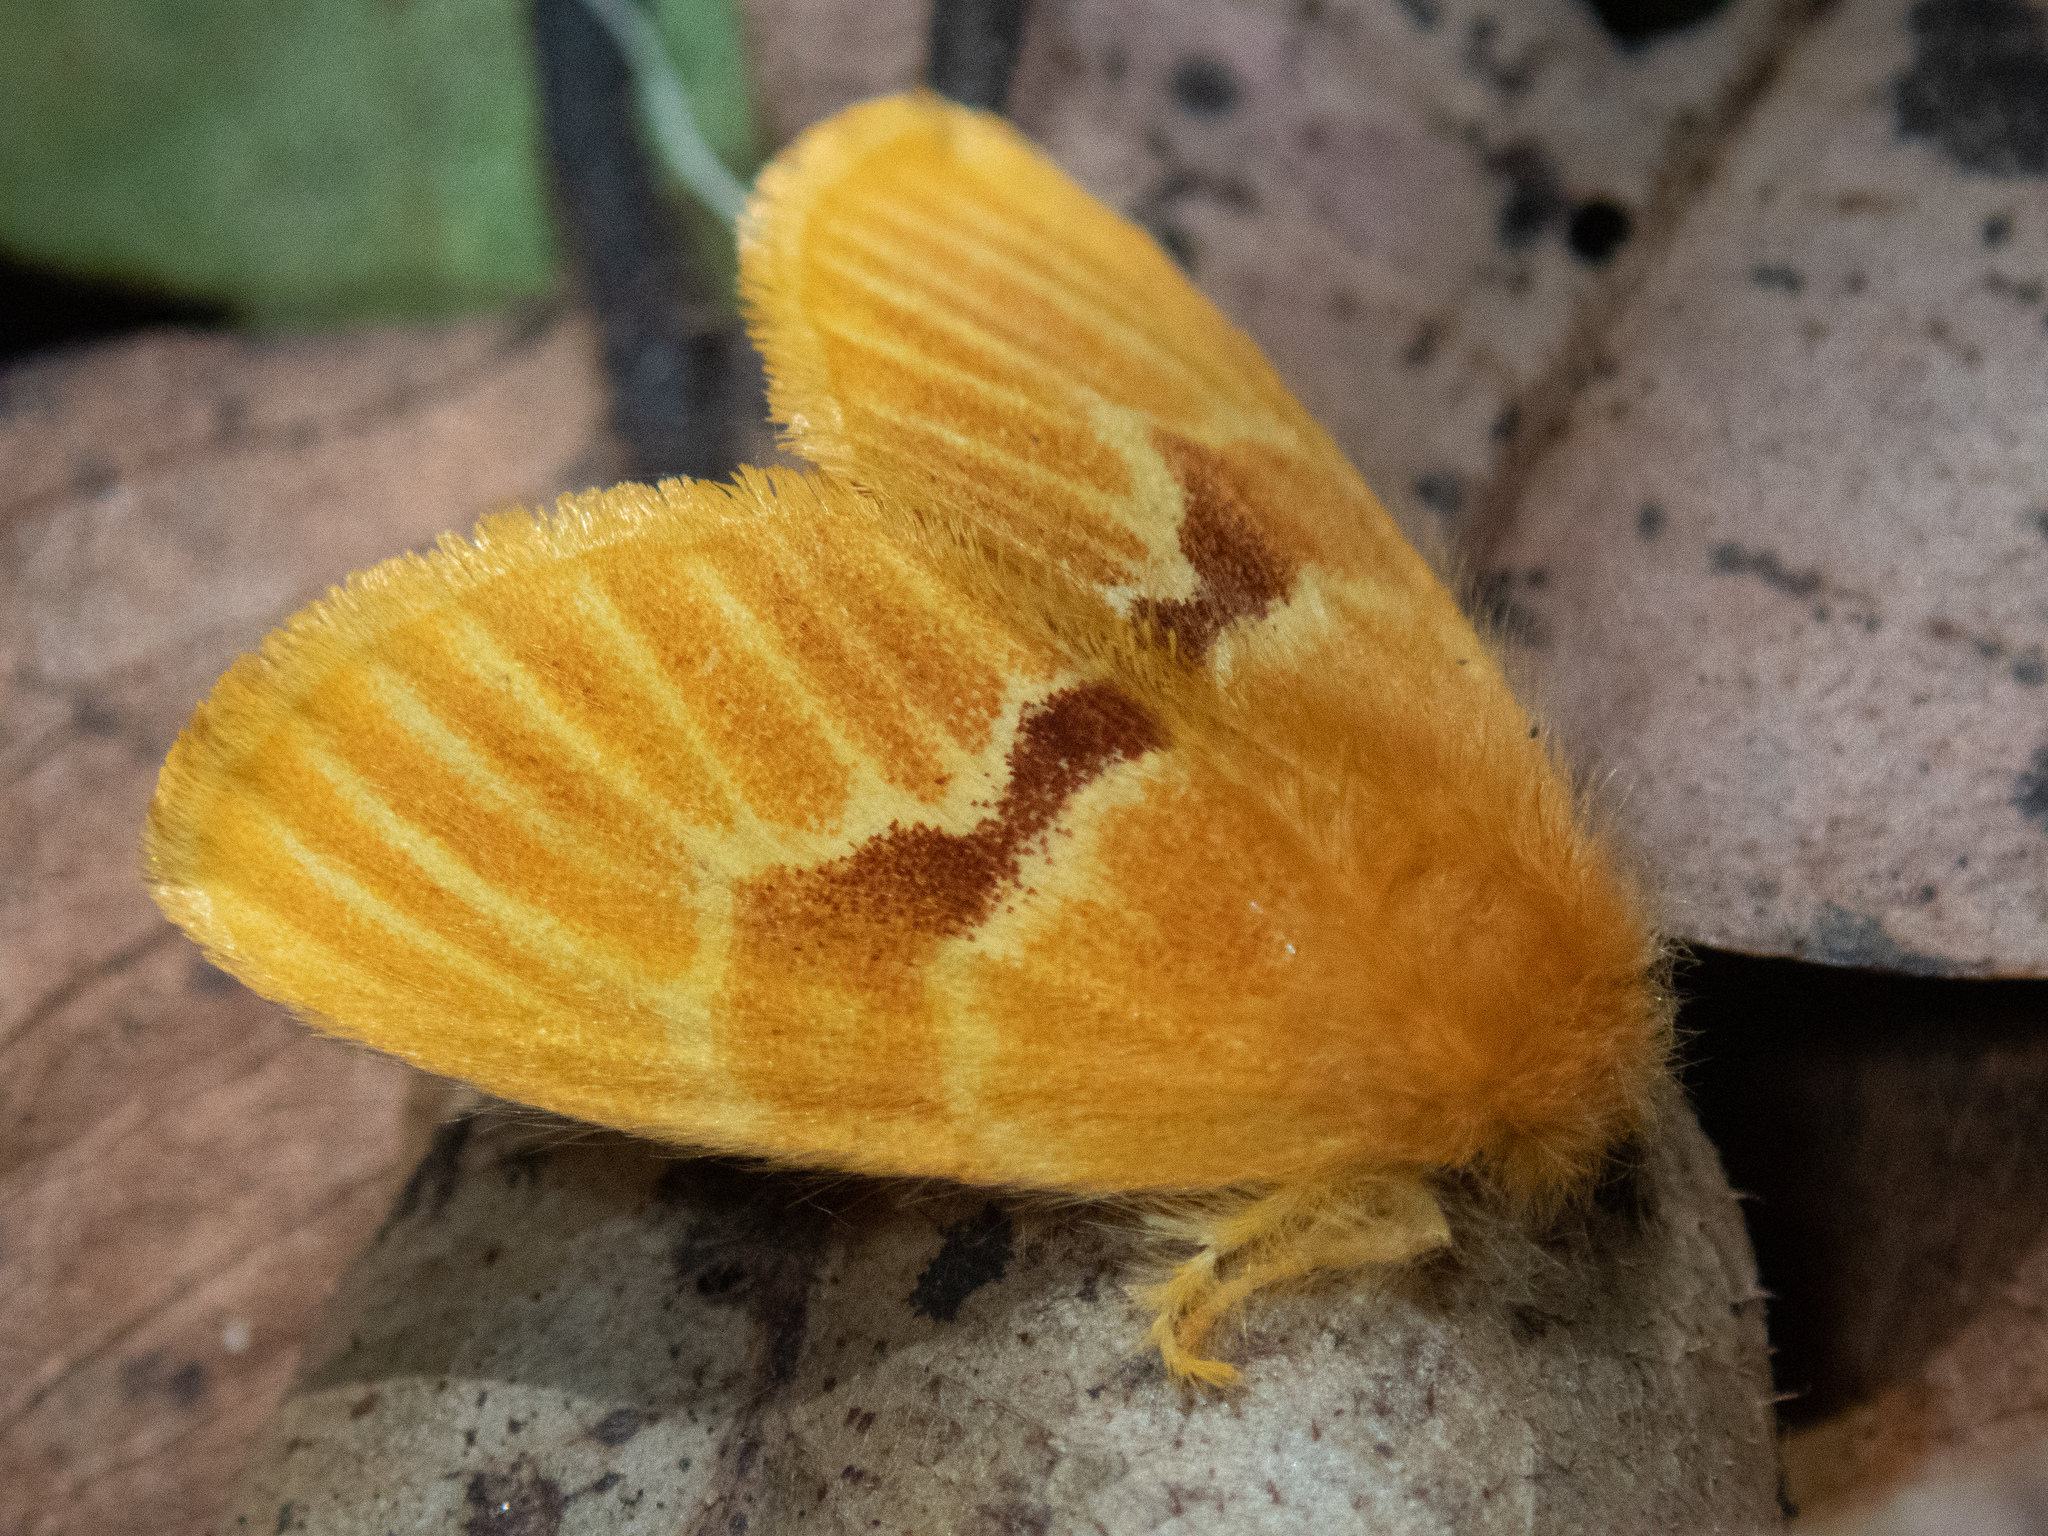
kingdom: Animalia
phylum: Arthropoda
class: Insecta
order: Lepidoptera
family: Erebidae
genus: Euproctis
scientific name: Euproctis hymnolis
